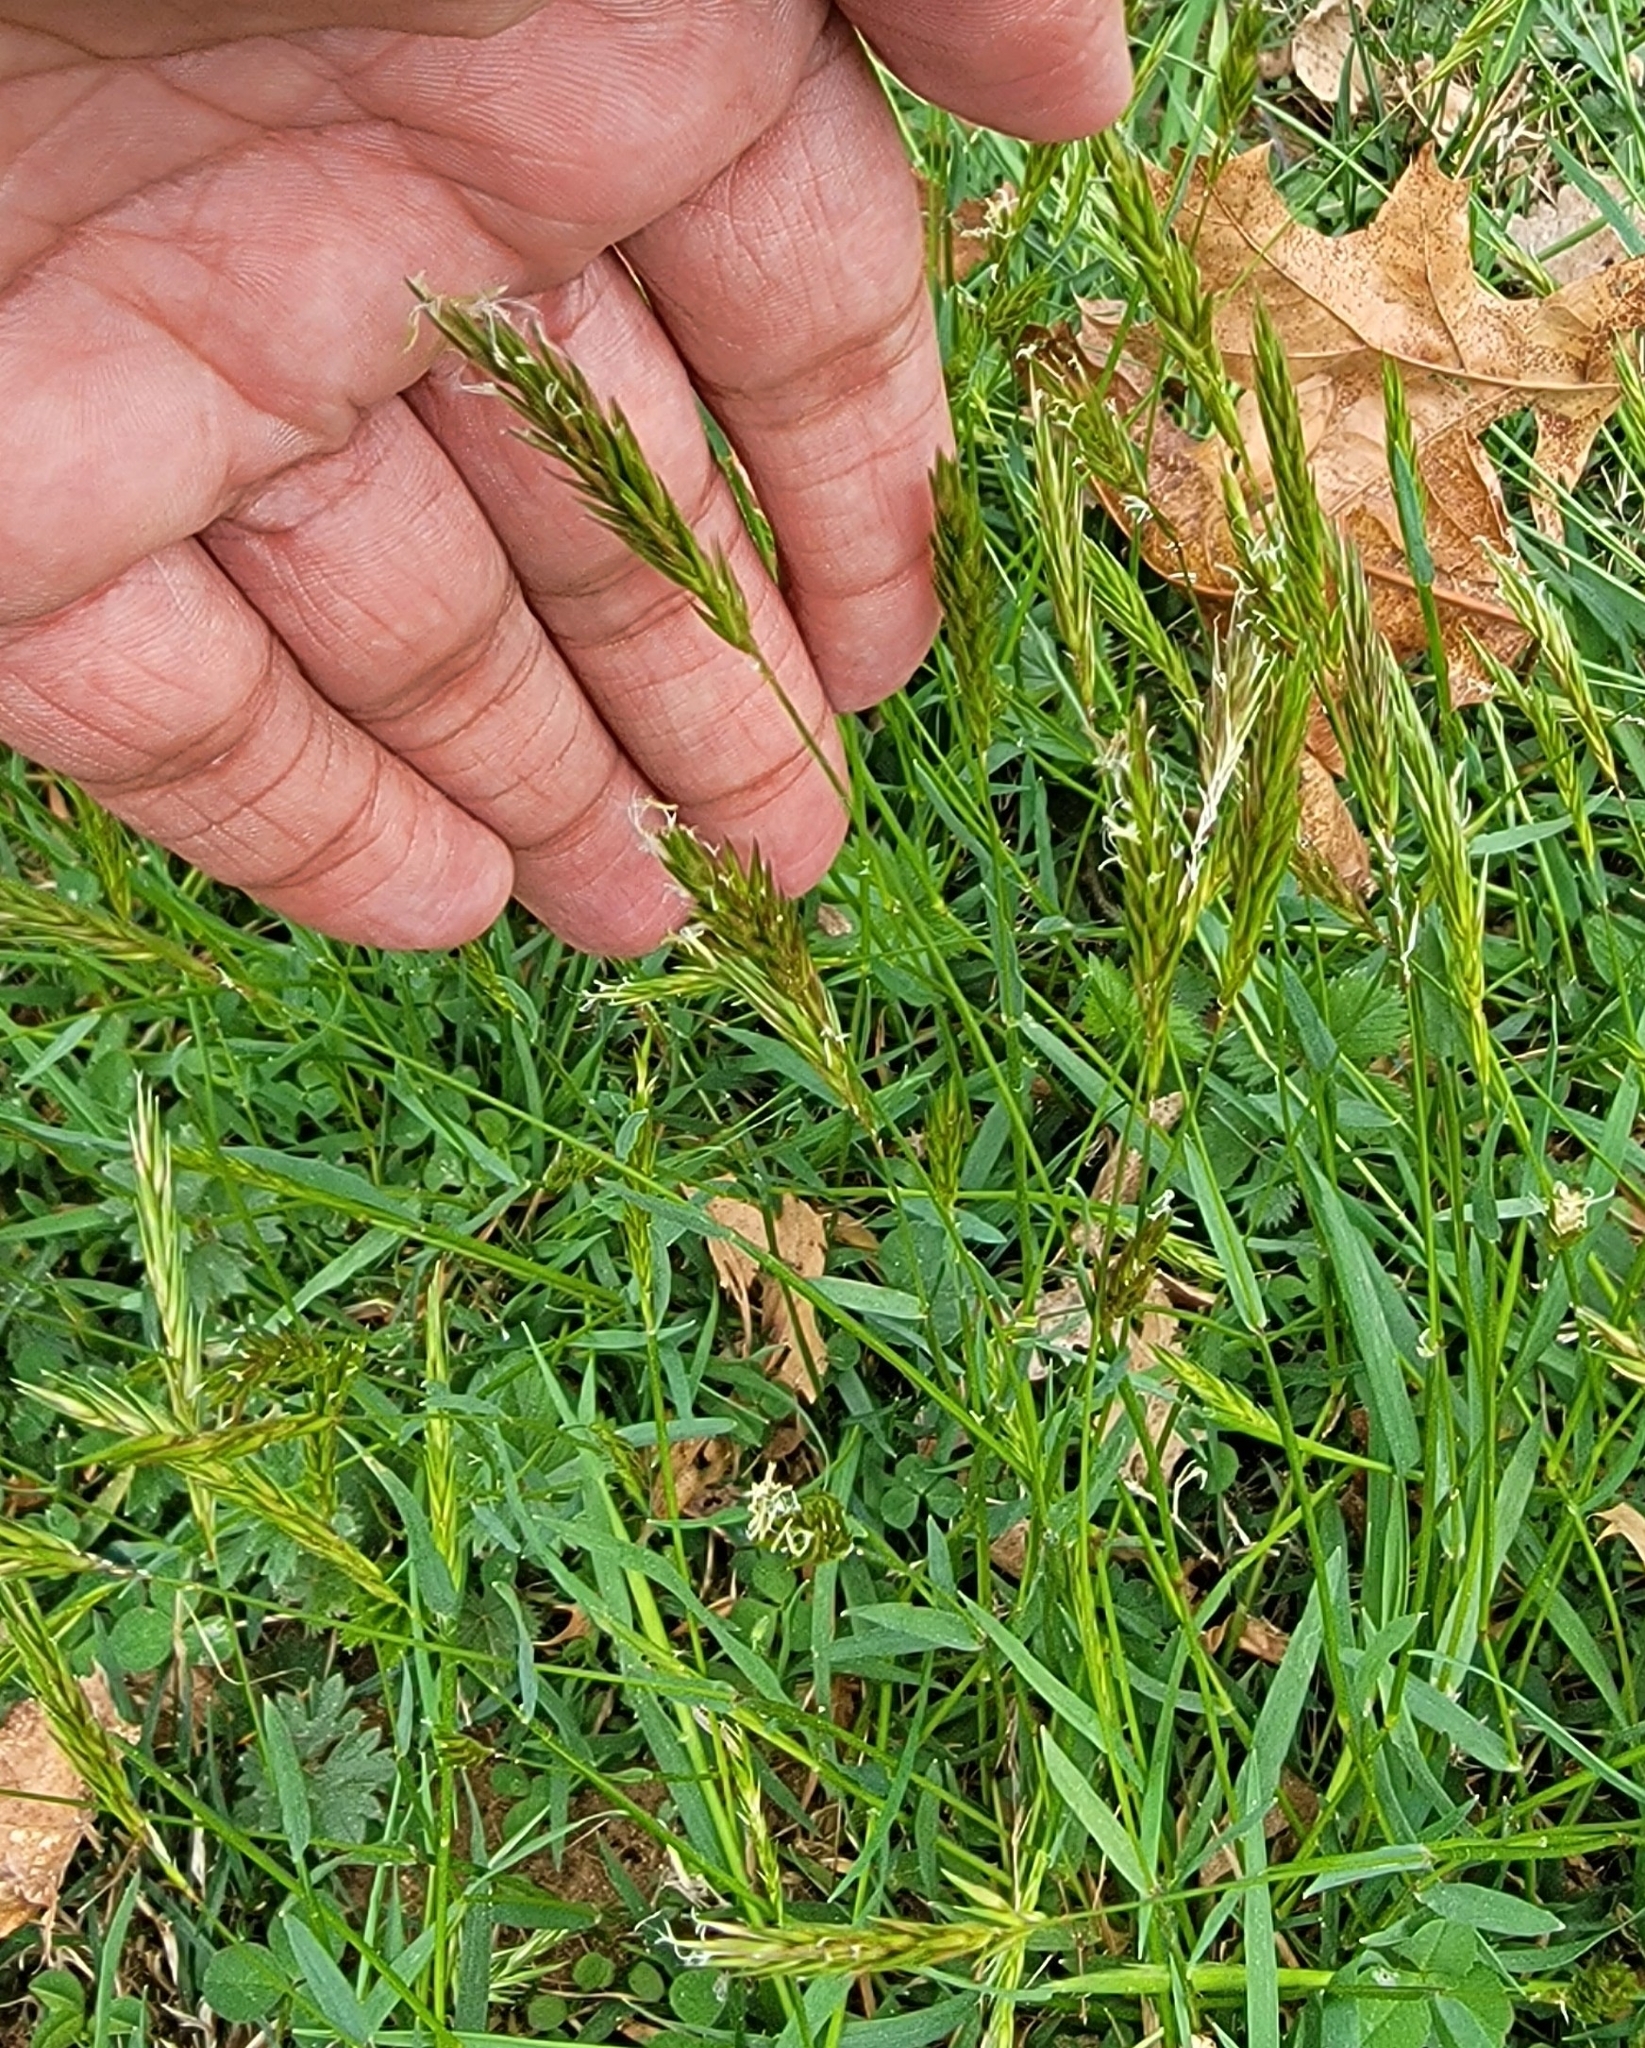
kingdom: Plantae
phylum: Tracheophyta
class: Liliopsida
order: Poales
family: Poaceae
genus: Anthoxanthum
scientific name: Anthoxanthum odoratum
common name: Sweet vernalgrass
